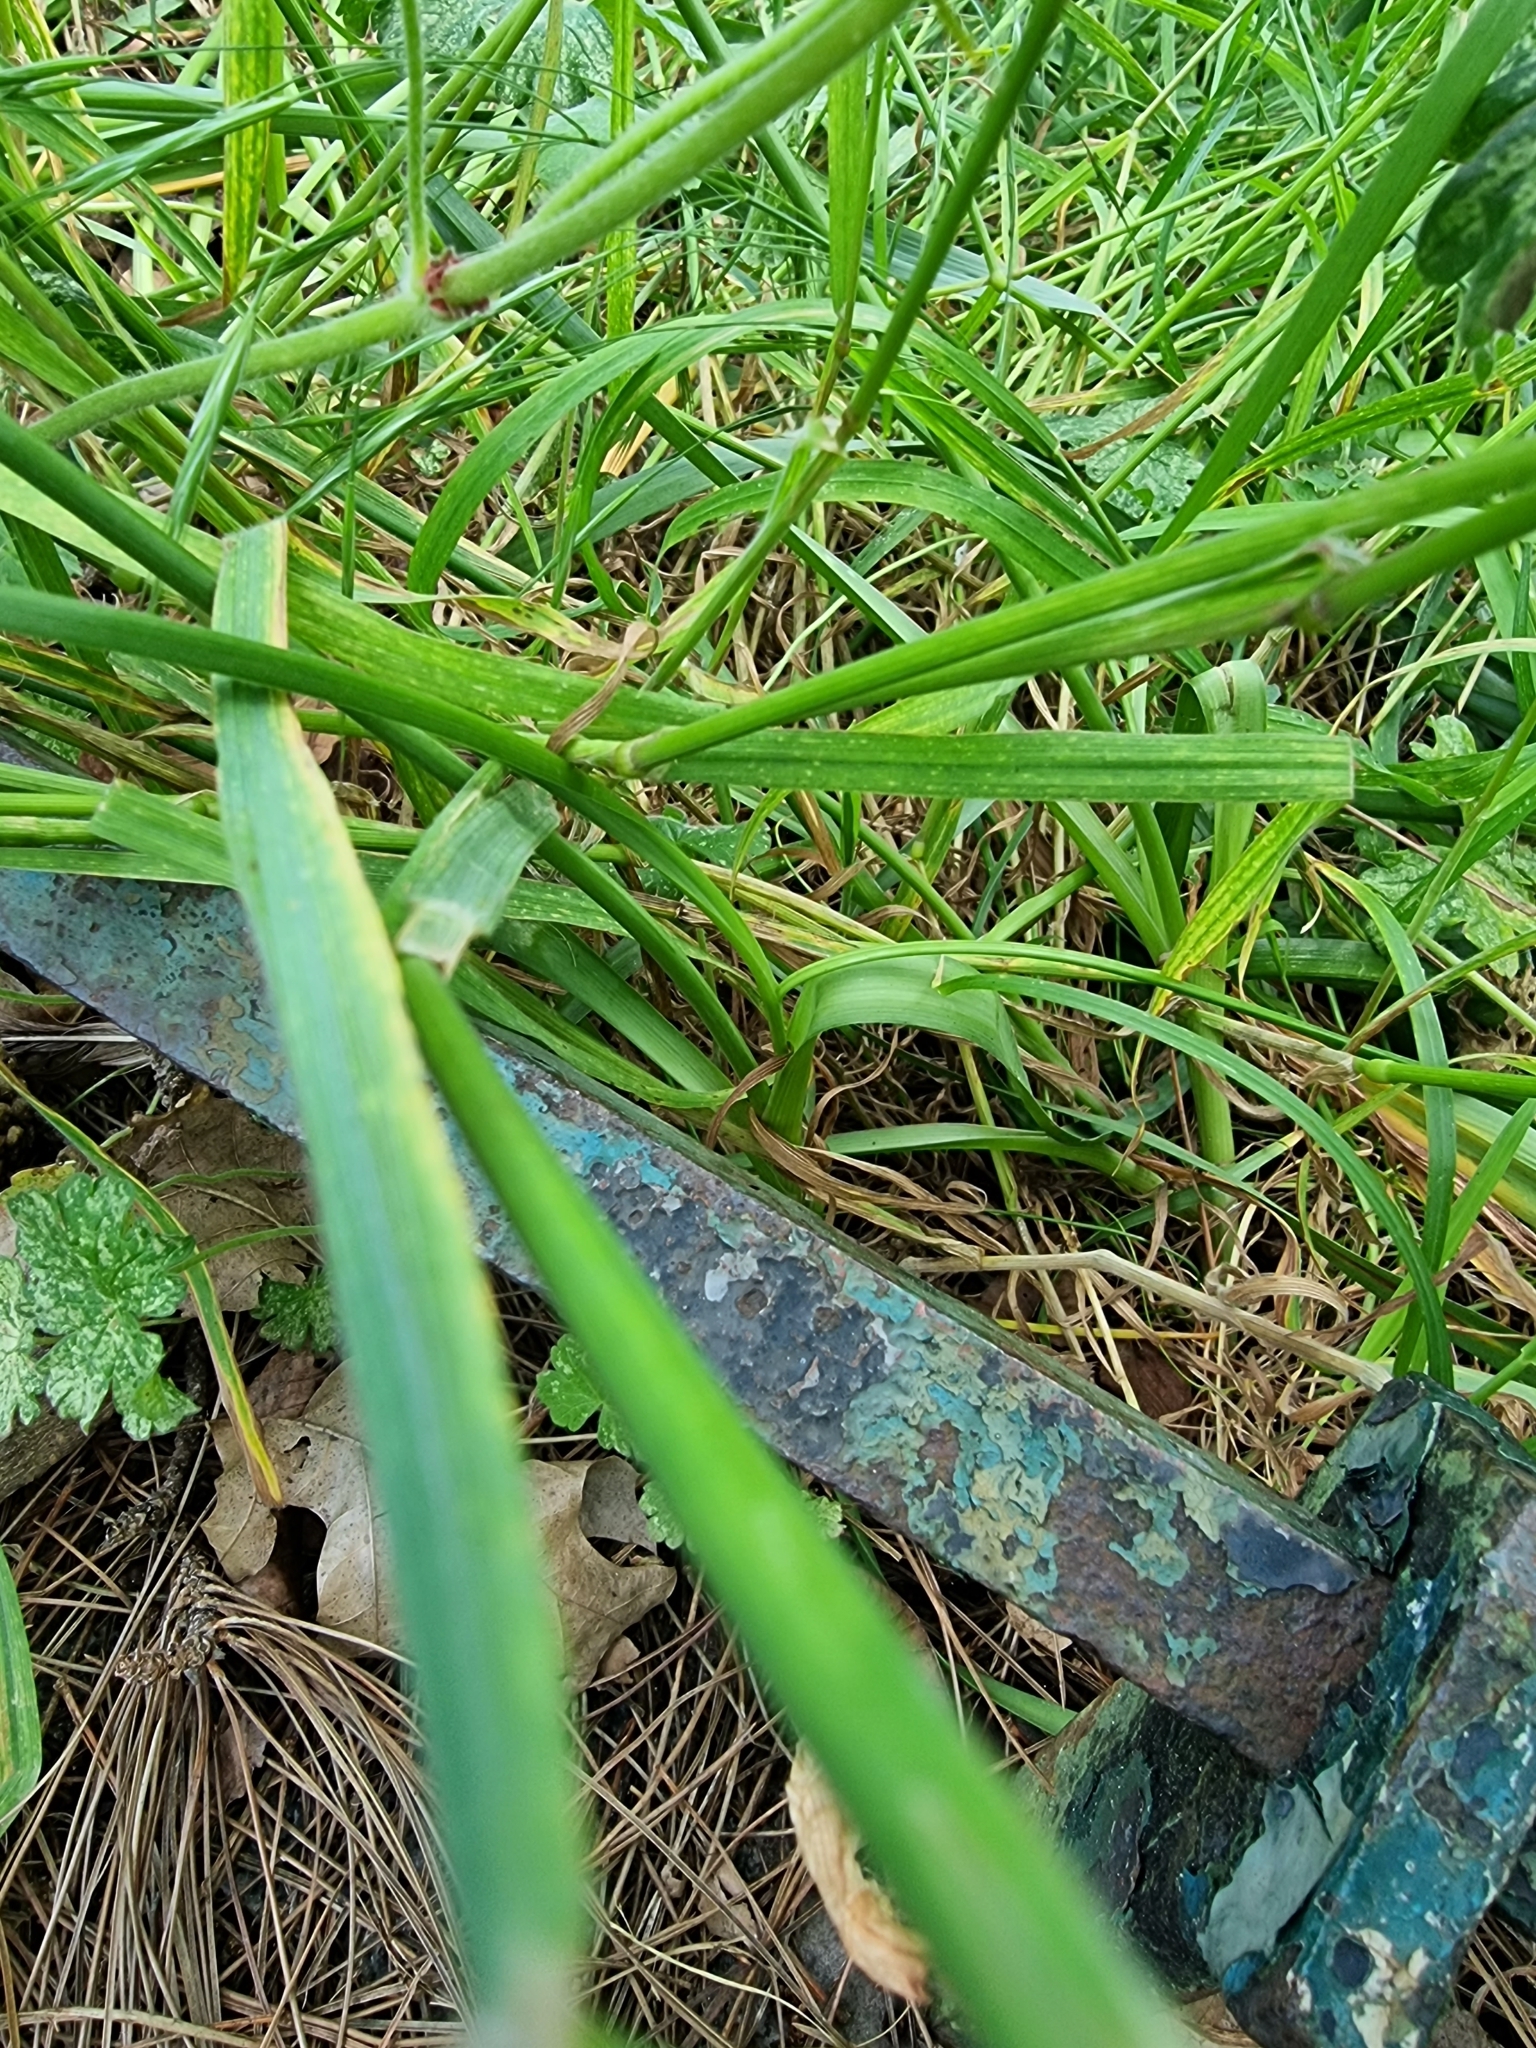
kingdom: Plantae
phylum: Tracheophyta
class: Liliopsida
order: Asparagales
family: Amaryllidaceae
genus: Allium
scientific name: Allium roseum
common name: Rosy garlic
